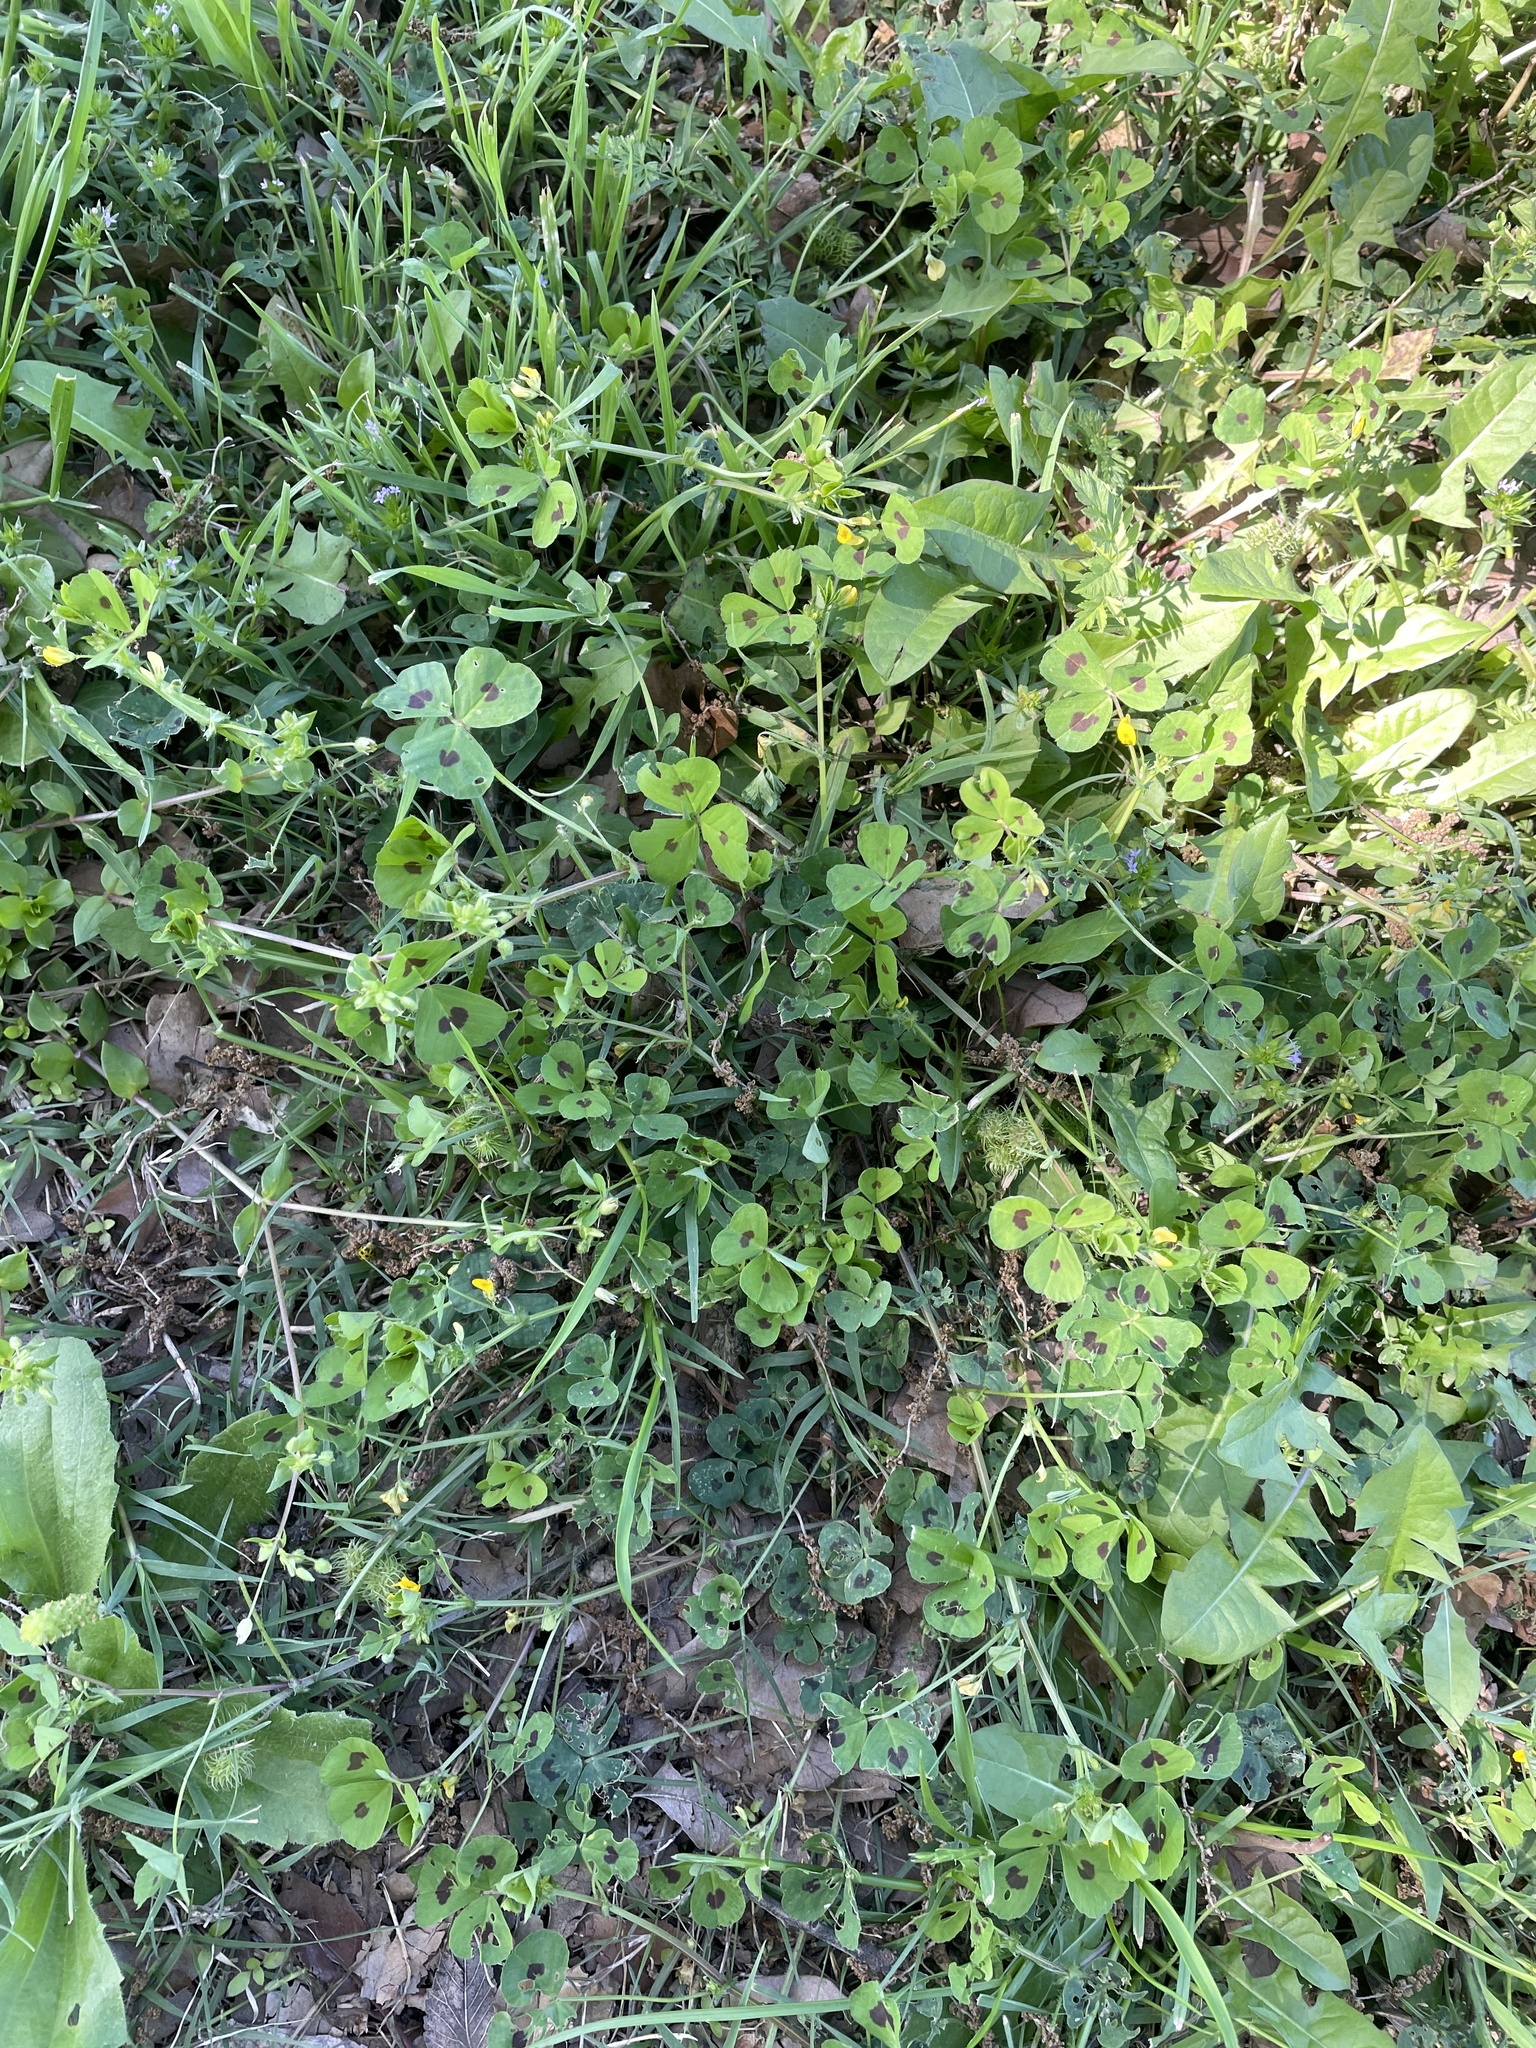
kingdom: Plantae
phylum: Tracheophyta
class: Magnoliopsida
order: Fabales
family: Fabaceae
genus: Medicago
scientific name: Medicago arabica
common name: Spotted medick
